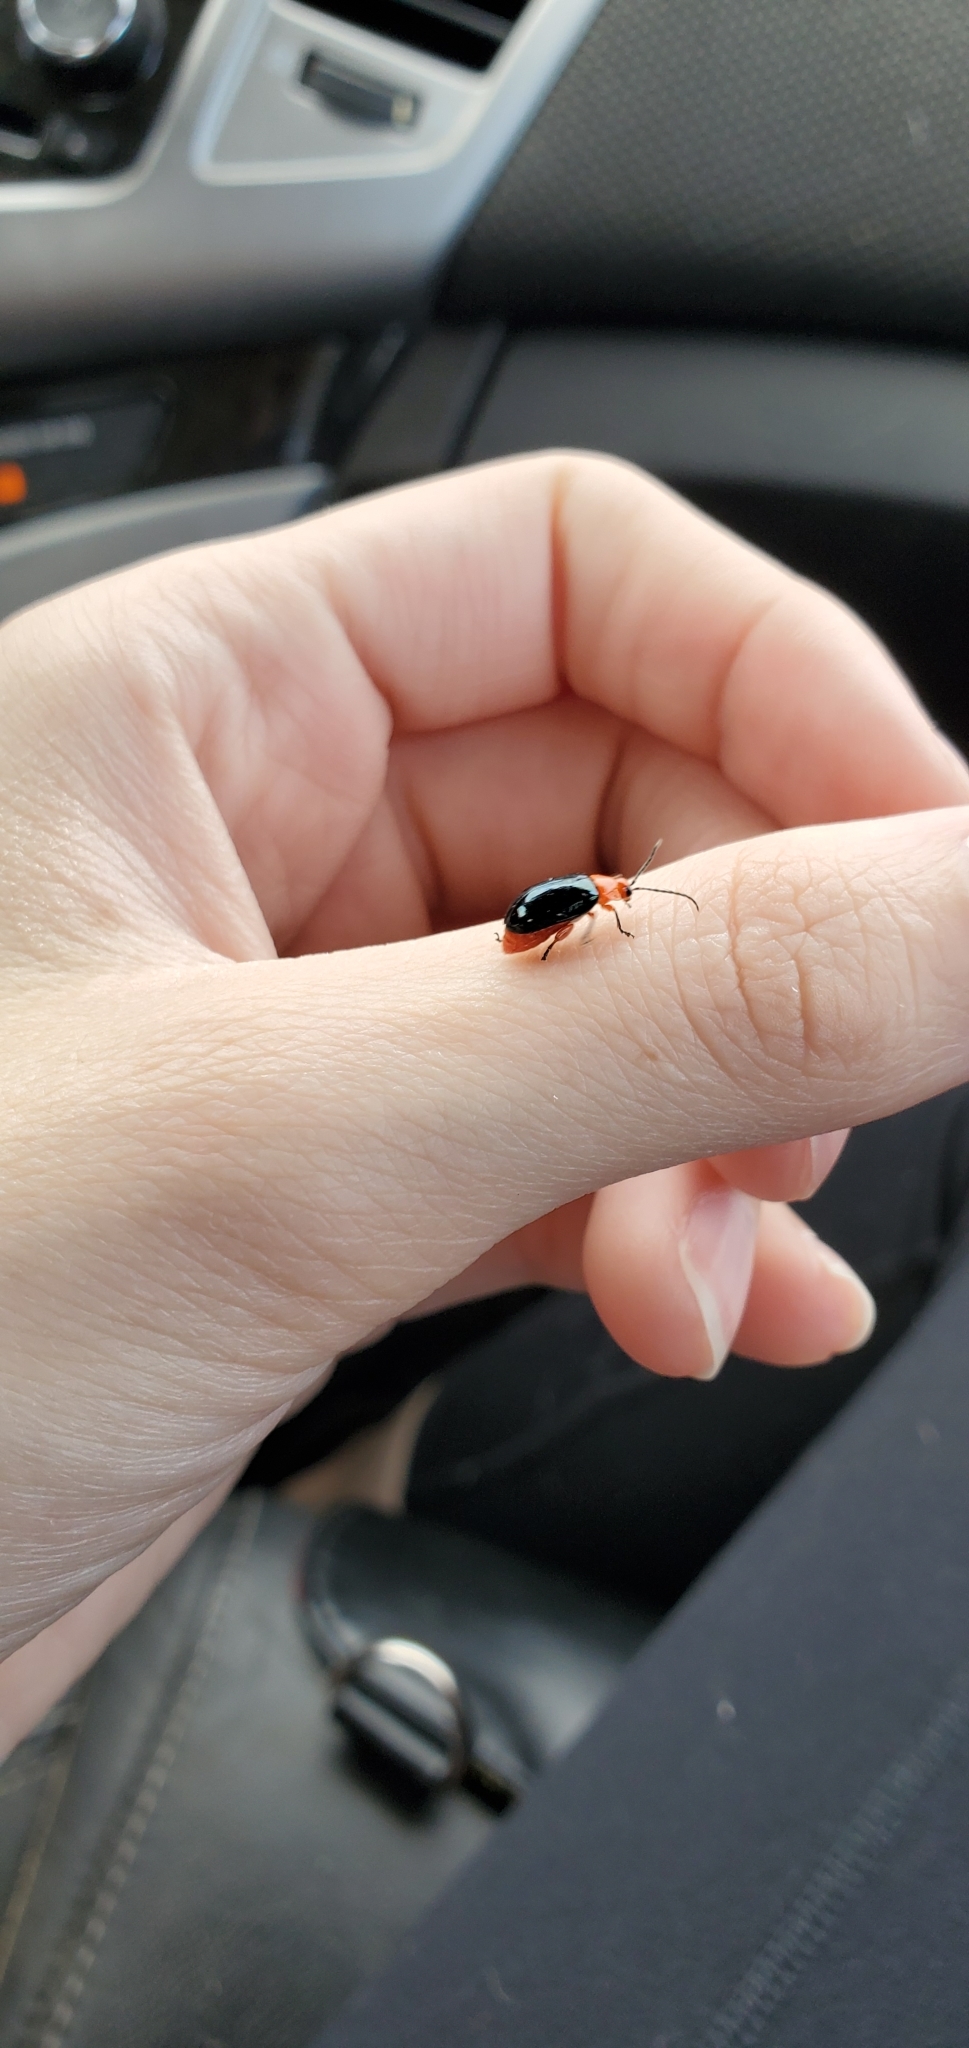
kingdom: Animalia
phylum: Arthropoda
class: Insecta
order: Coleoptera
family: Chrysomelidae
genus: Asphaera
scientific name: Asphaera lustrans
